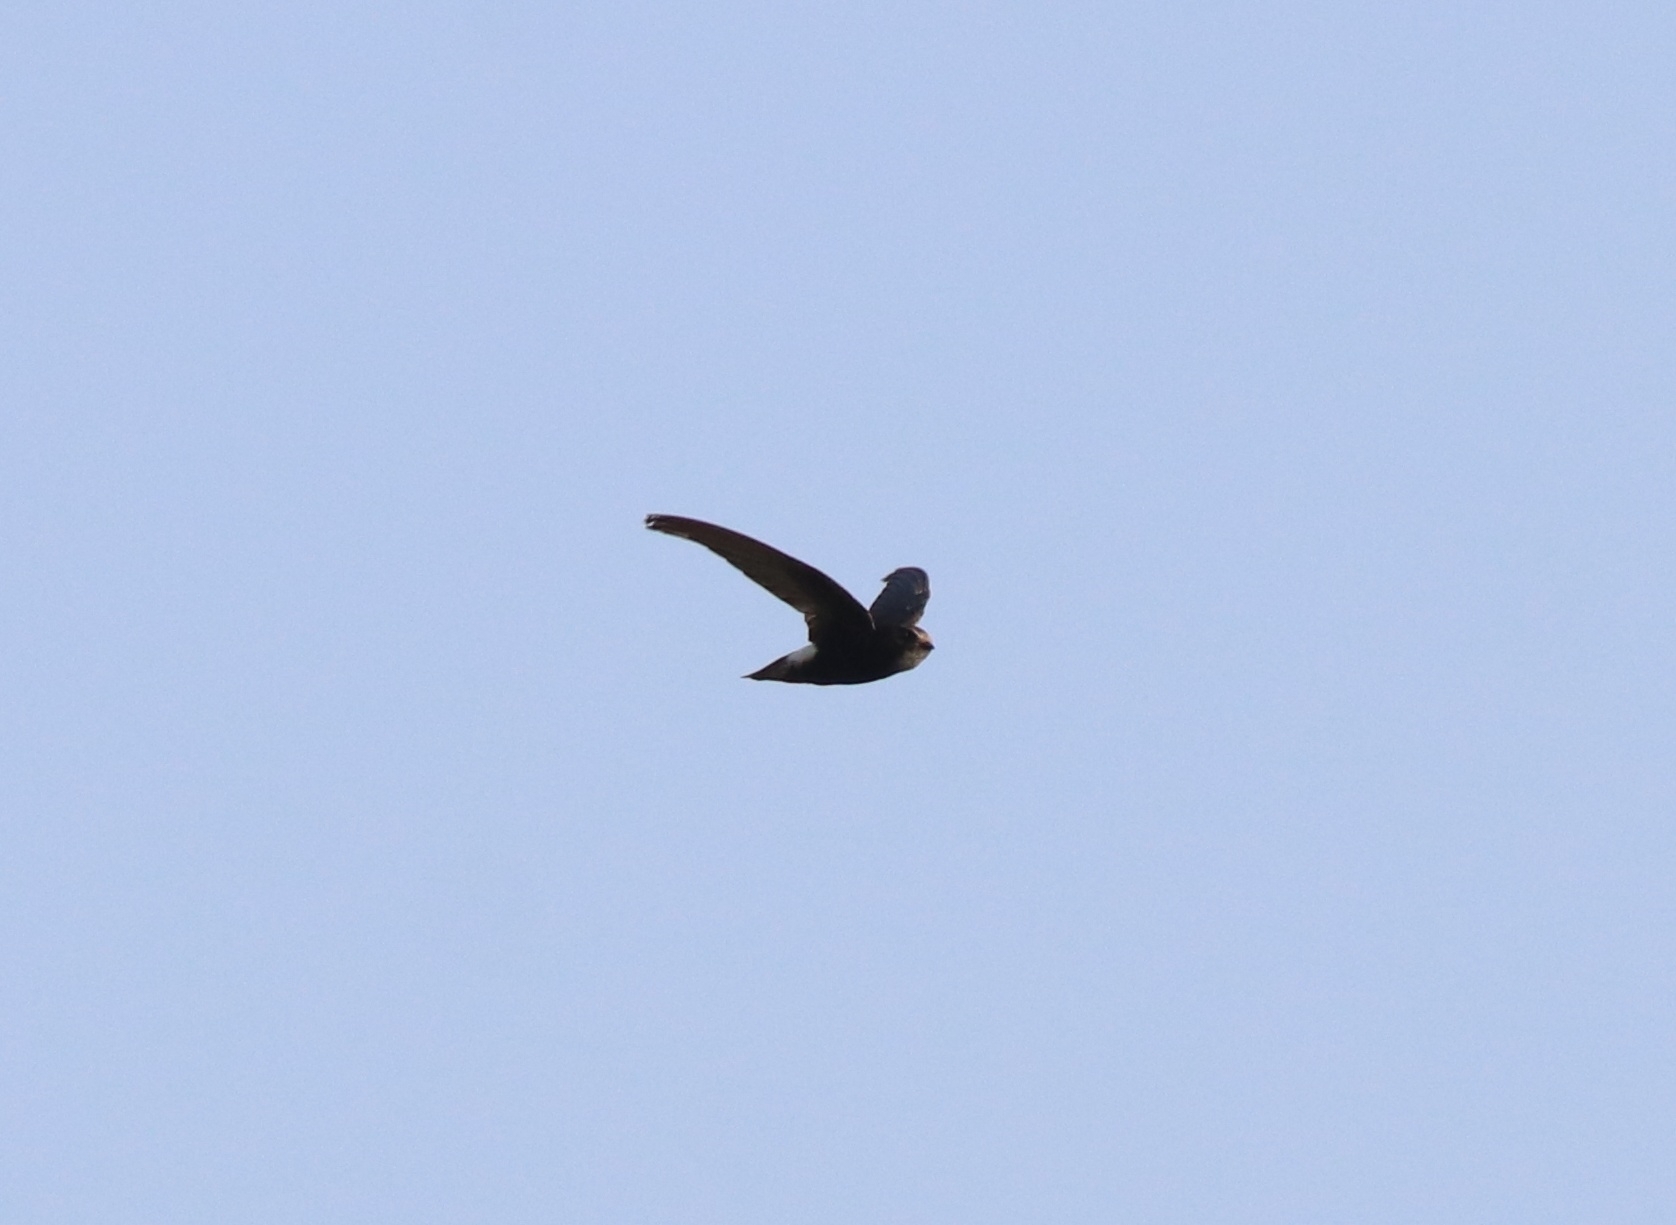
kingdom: Animalia
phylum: Chordata
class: Aves
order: Apodiformes
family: Apodidae
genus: Apus
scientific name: Apus affinis
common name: Little swift
